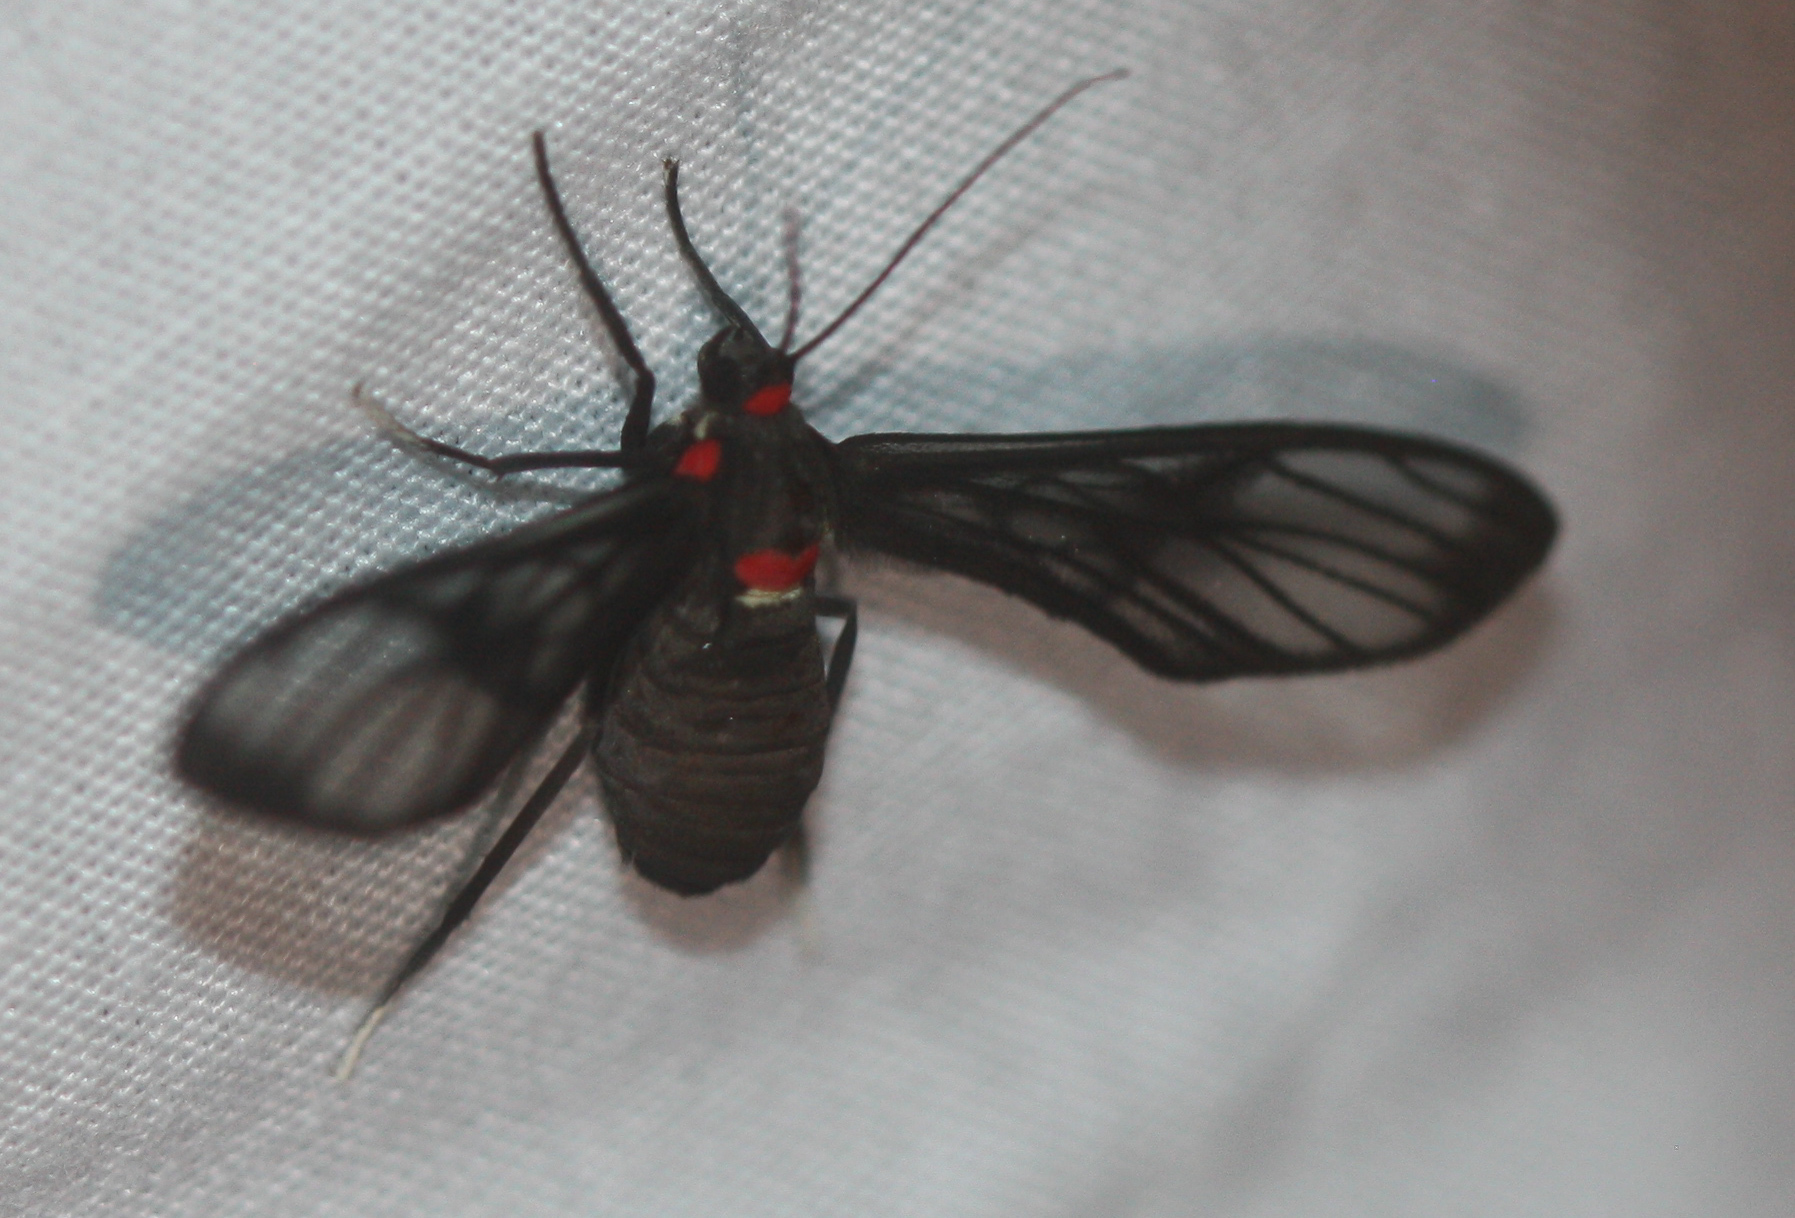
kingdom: Animalia
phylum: Arthropoda
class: Insecta
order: Lepidoptera
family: Erebidae
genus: Saurita
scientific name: Saurita phoenicosticta
